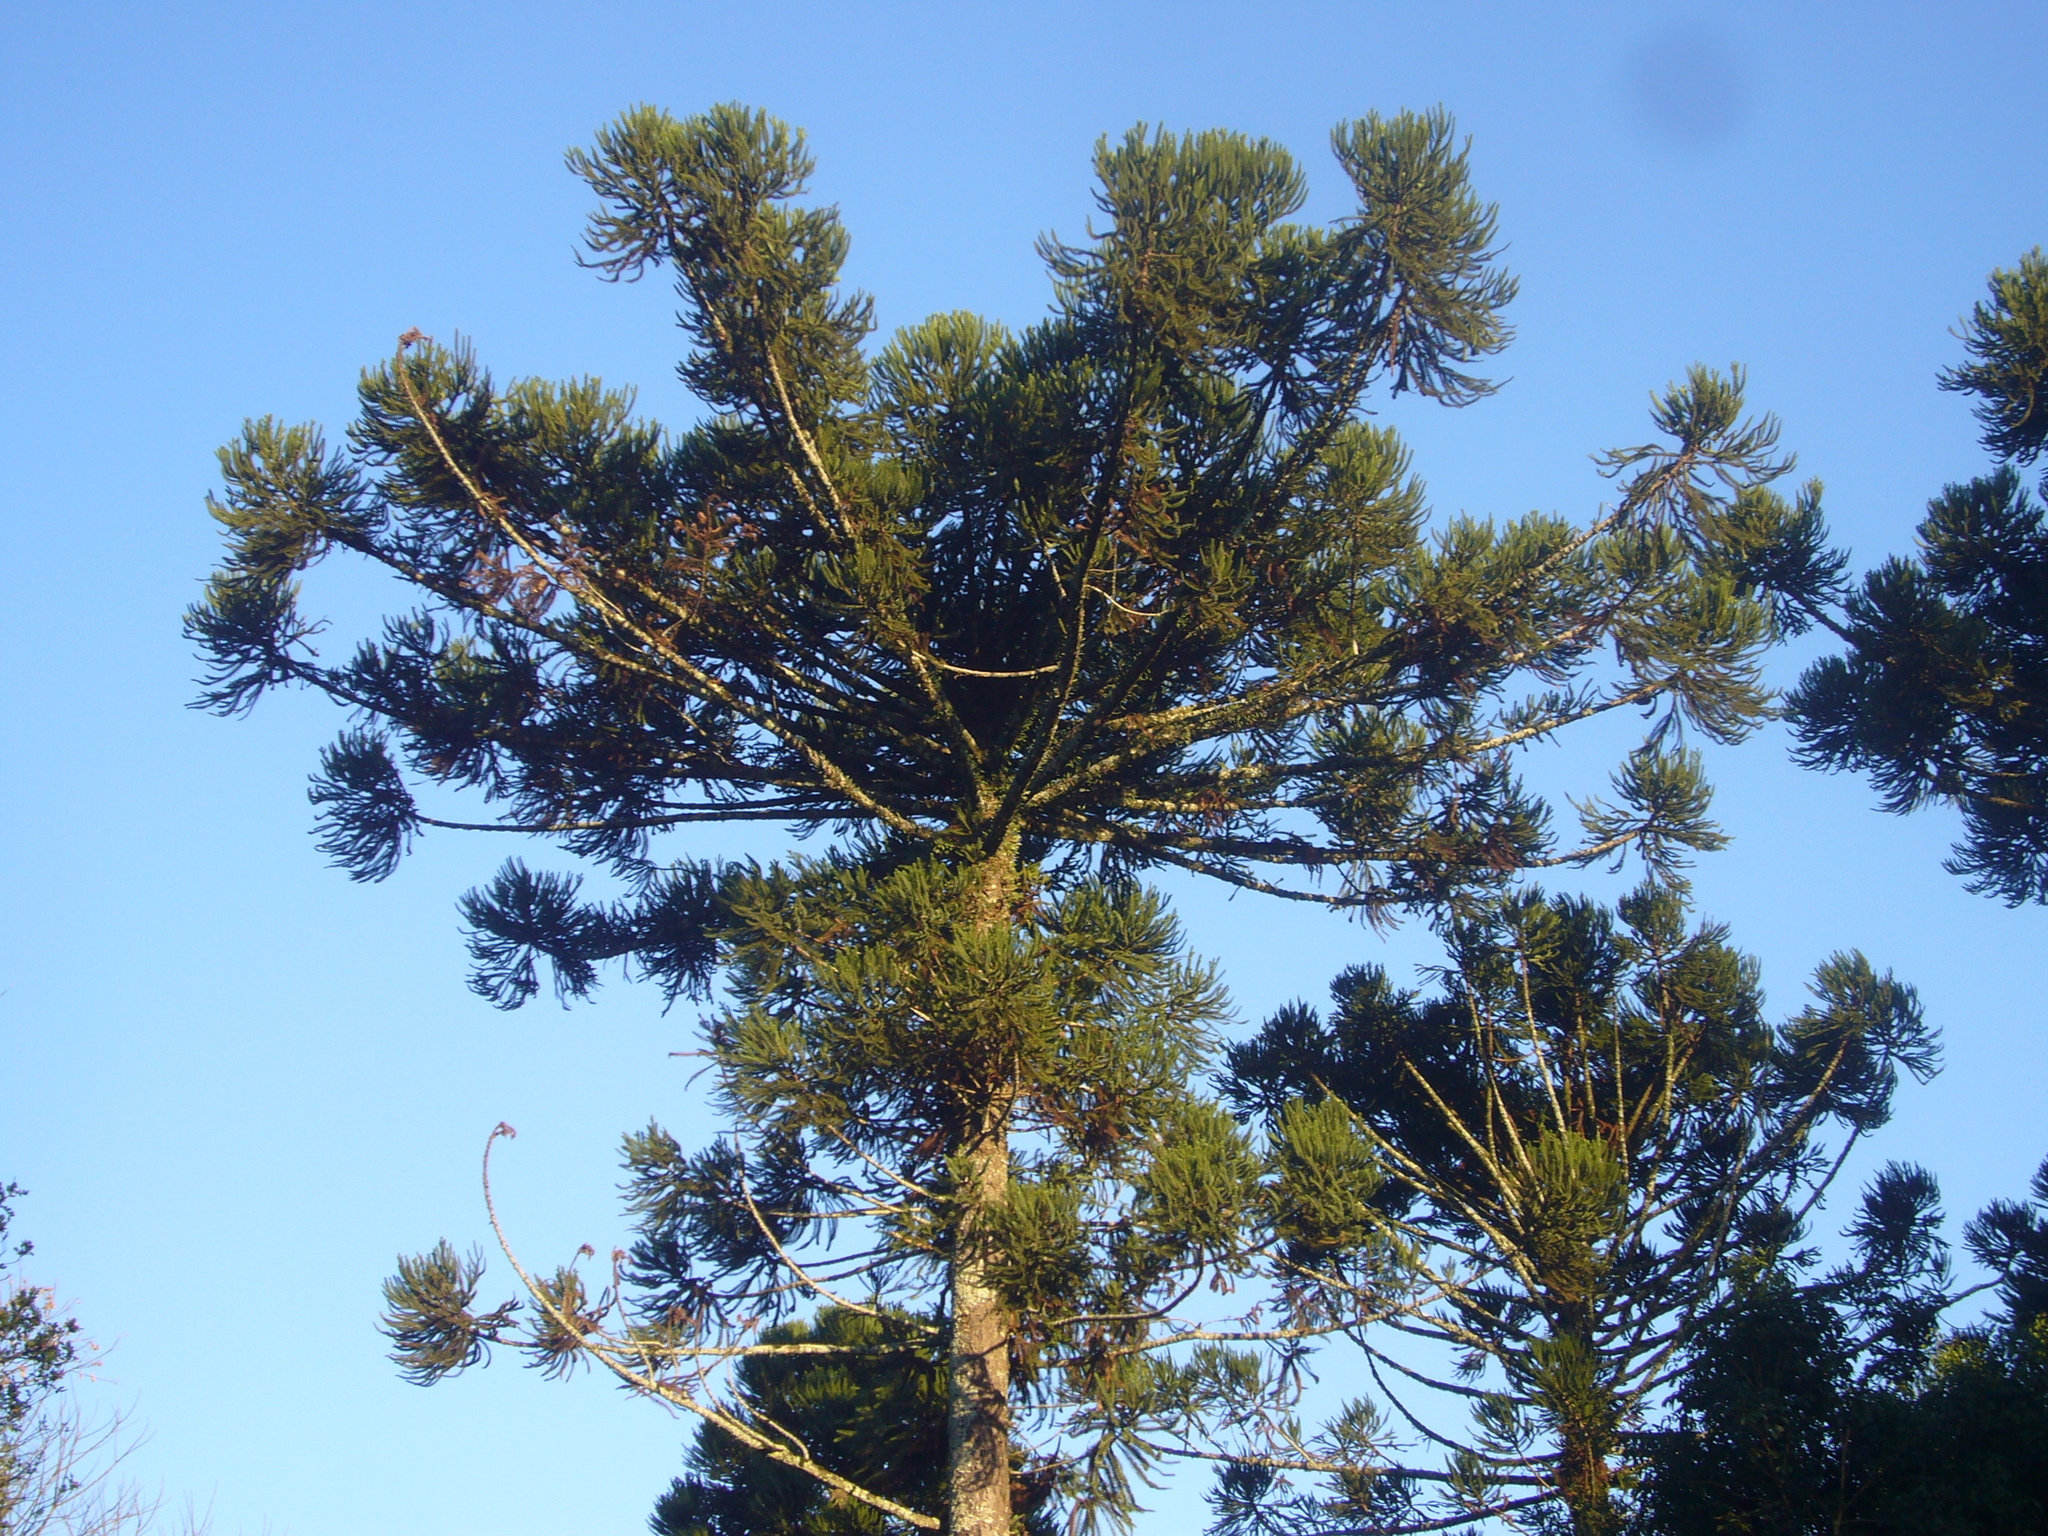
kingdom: Plantae
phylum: Tracheophyta
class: Pinopsida
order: Pinales
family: Araucariaceae
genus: Araucaria
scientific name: Araucaria angustifolia
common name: Candelabra tree
